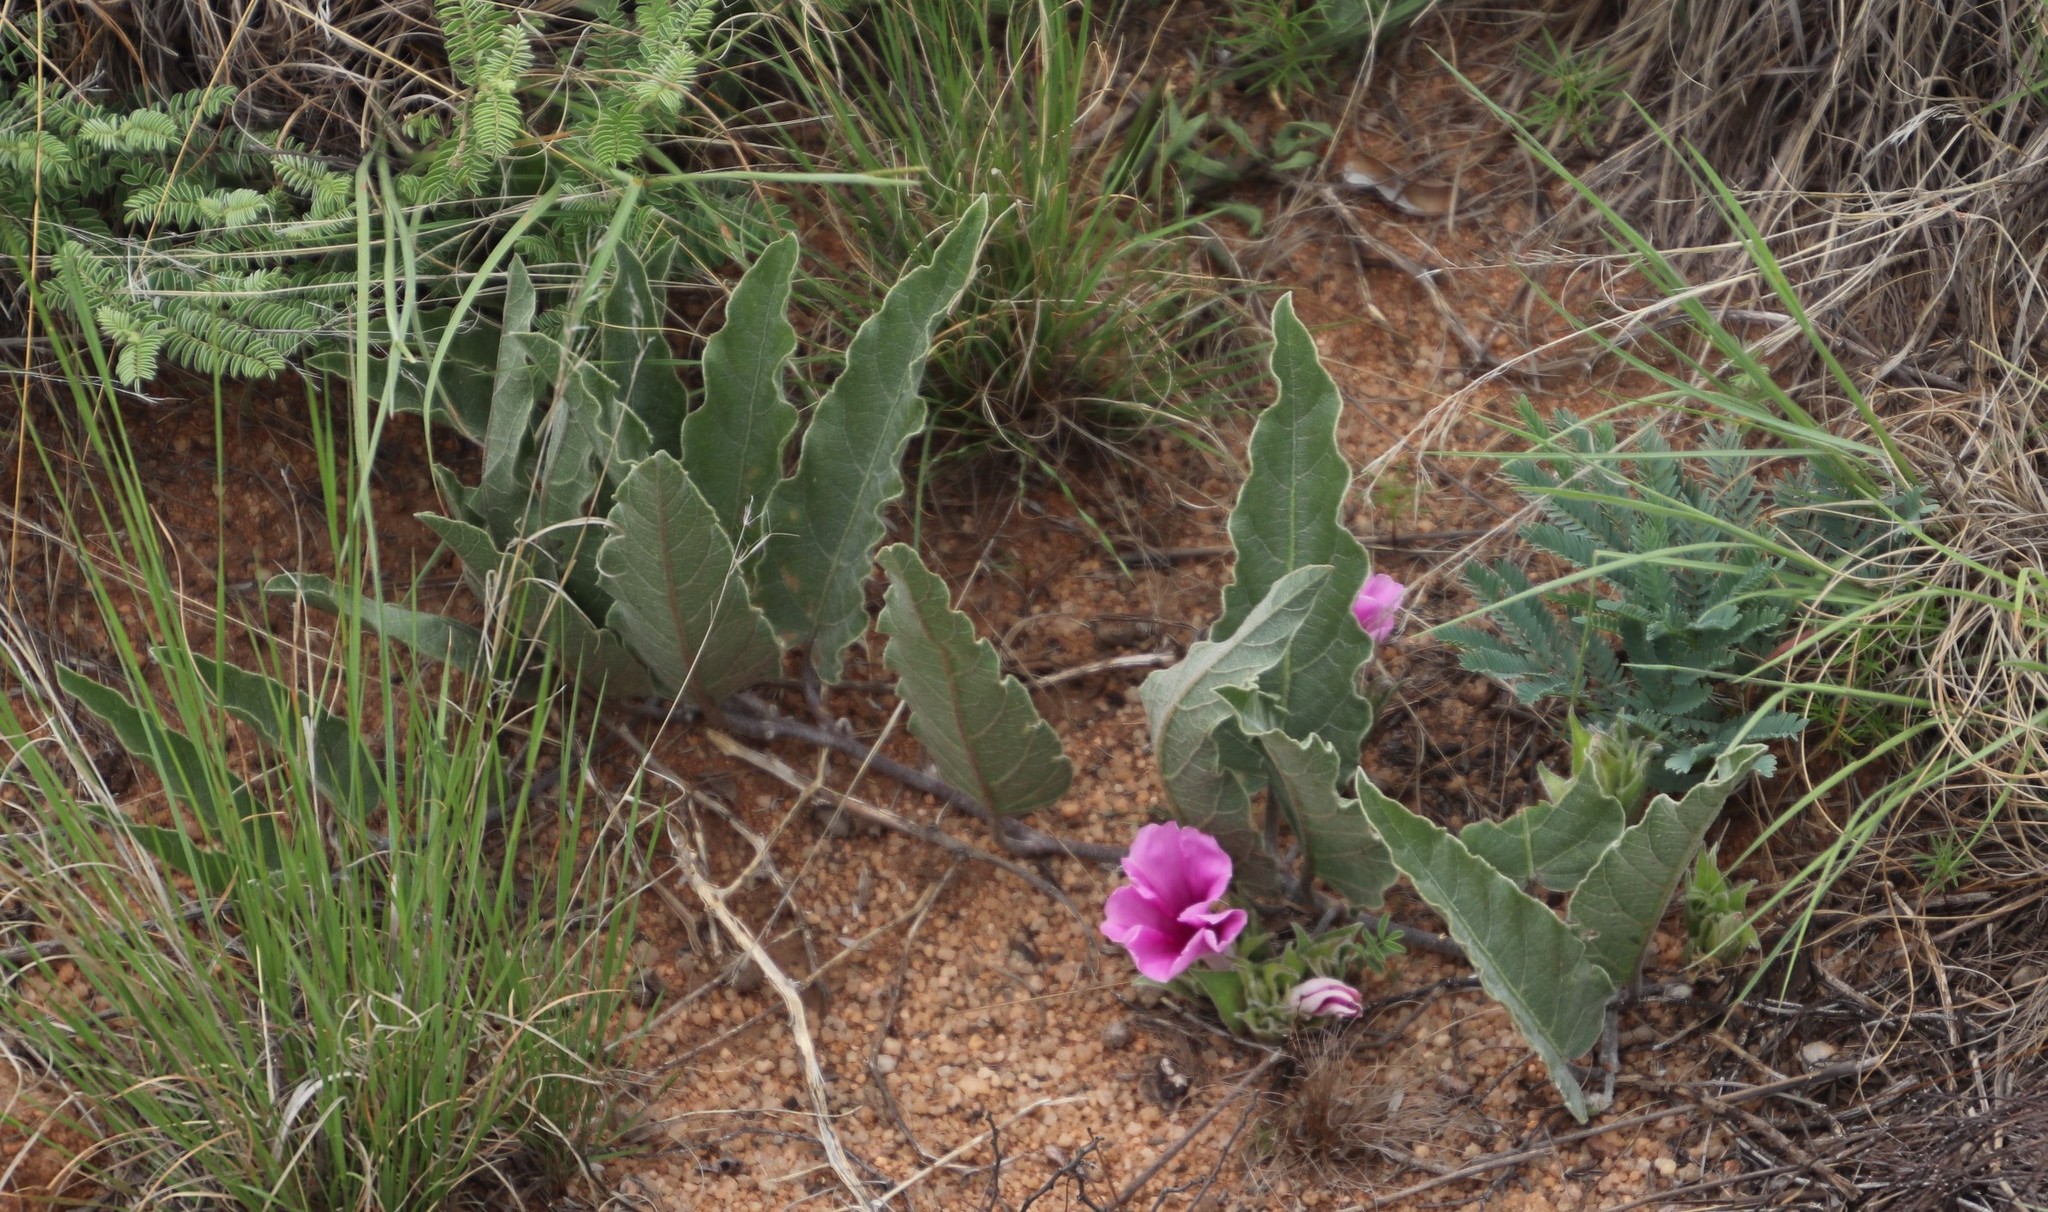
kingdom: Plantae
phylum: Tracheophyta
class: Magnoliopsida
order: Solanales
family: Convolvulaceae
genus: Ipomoea
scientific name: Ipomoea ommanneyi
